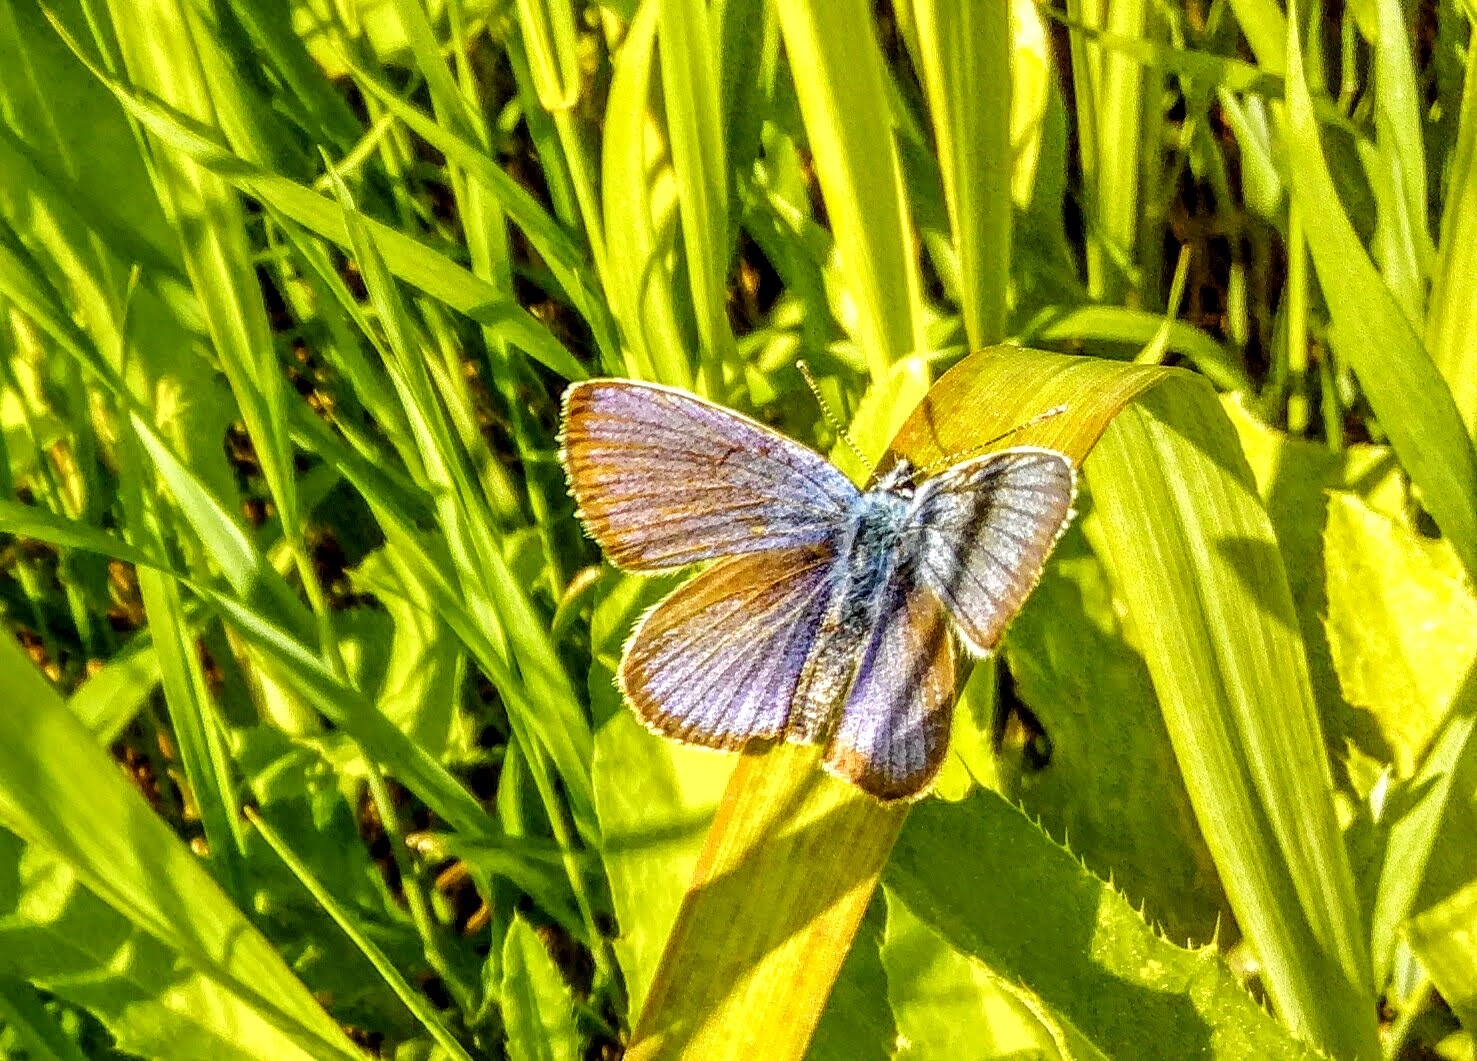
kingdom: Animalia
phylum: Arthropoda
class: Insecta
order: Lepidoptera
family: Lycaenidae
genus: Cyaniris
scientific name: Cyaniris semiargus
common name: Mazarine blue
